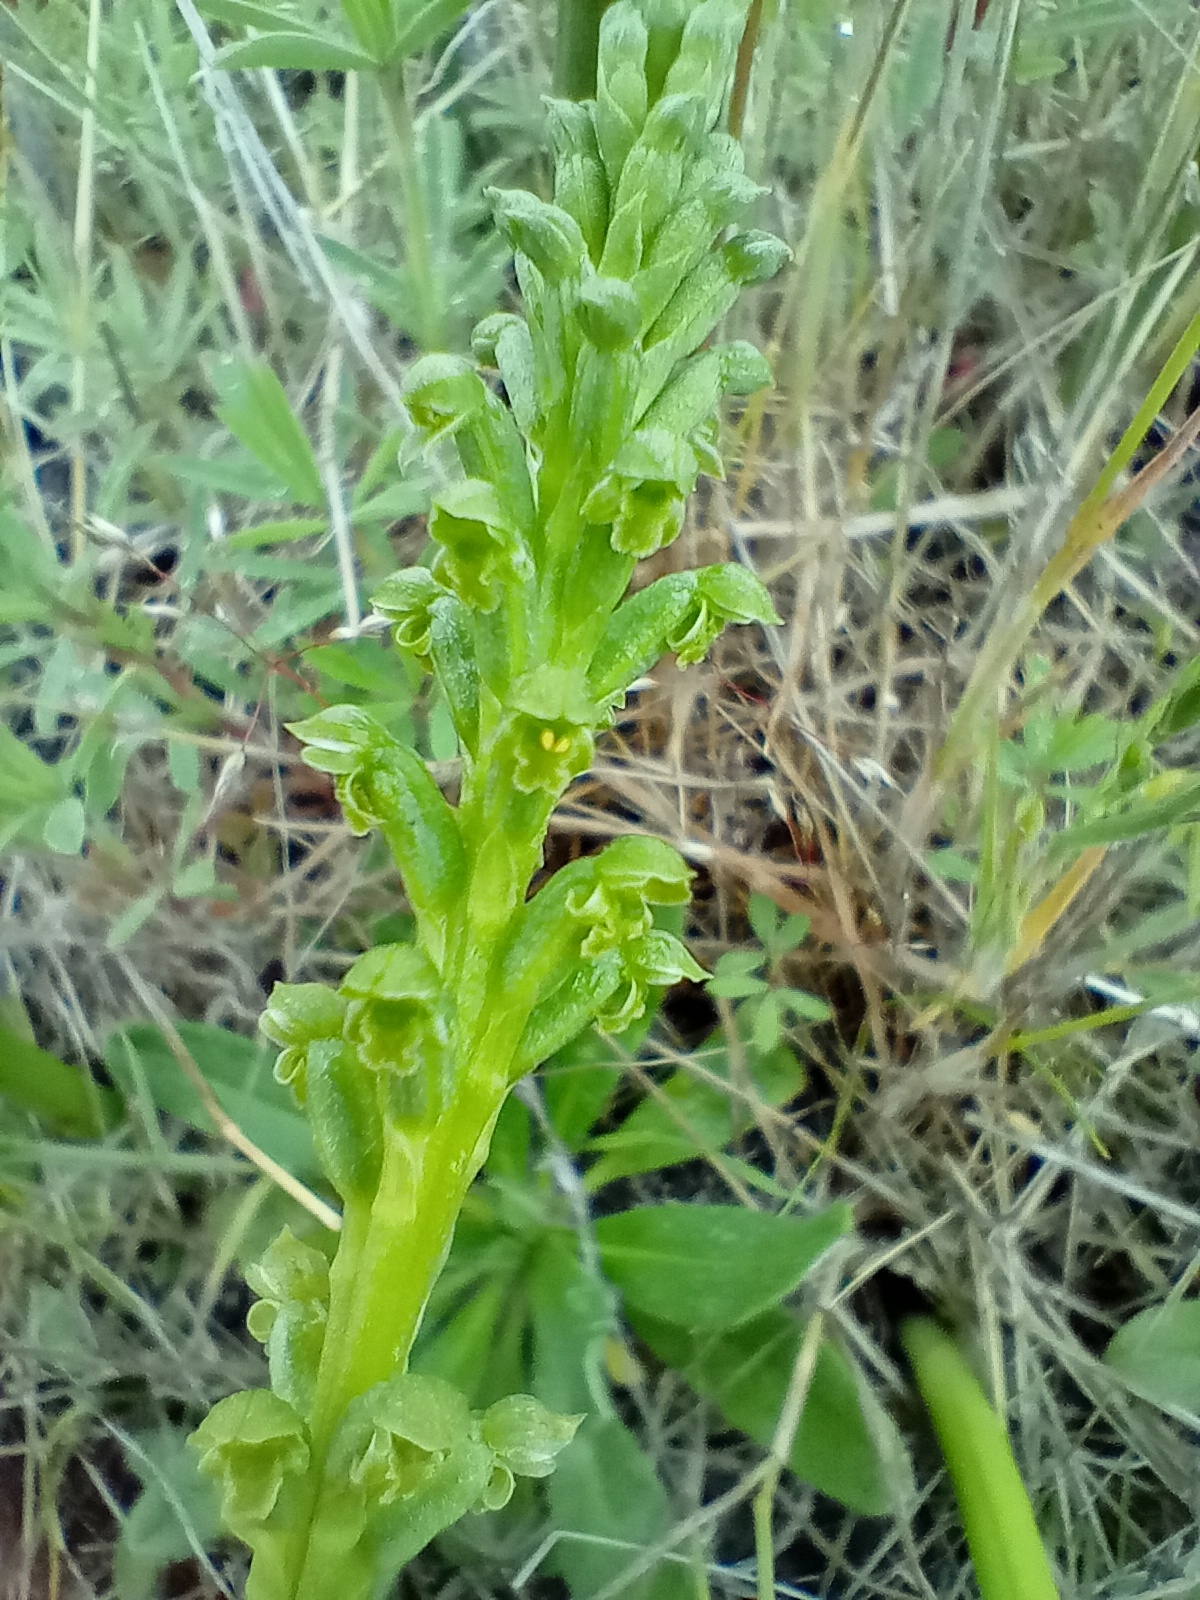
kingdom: Plantae
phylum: Tracheophyta
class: Liliopsida
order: Asparagales
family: Orchidaceae
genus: Microtis
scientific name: Microtis unifolia
